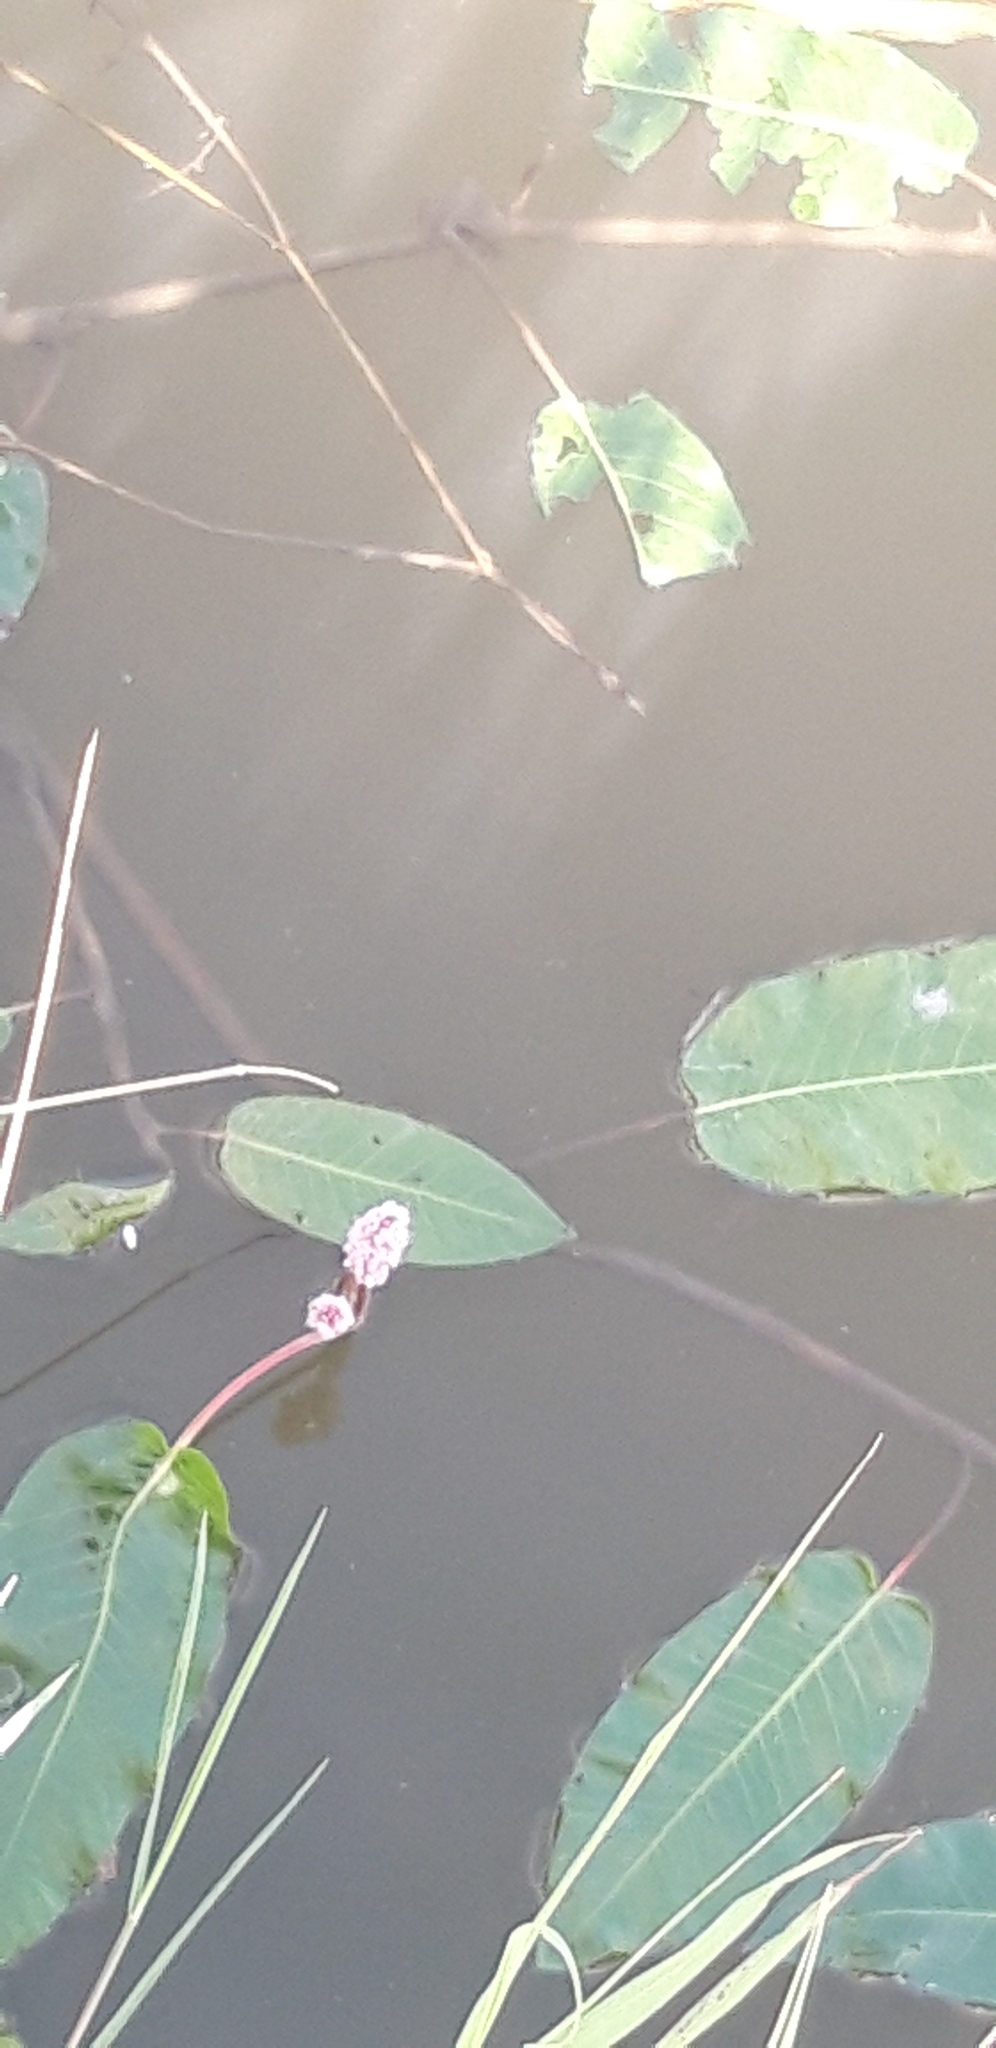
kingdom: Plantae
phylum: Tracheophyta
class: Magnoliopsida
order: Caryophyllales
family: Polygonaceae
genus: Persicaria
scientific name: Persicaria amphibia
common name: Amphibious bistort
